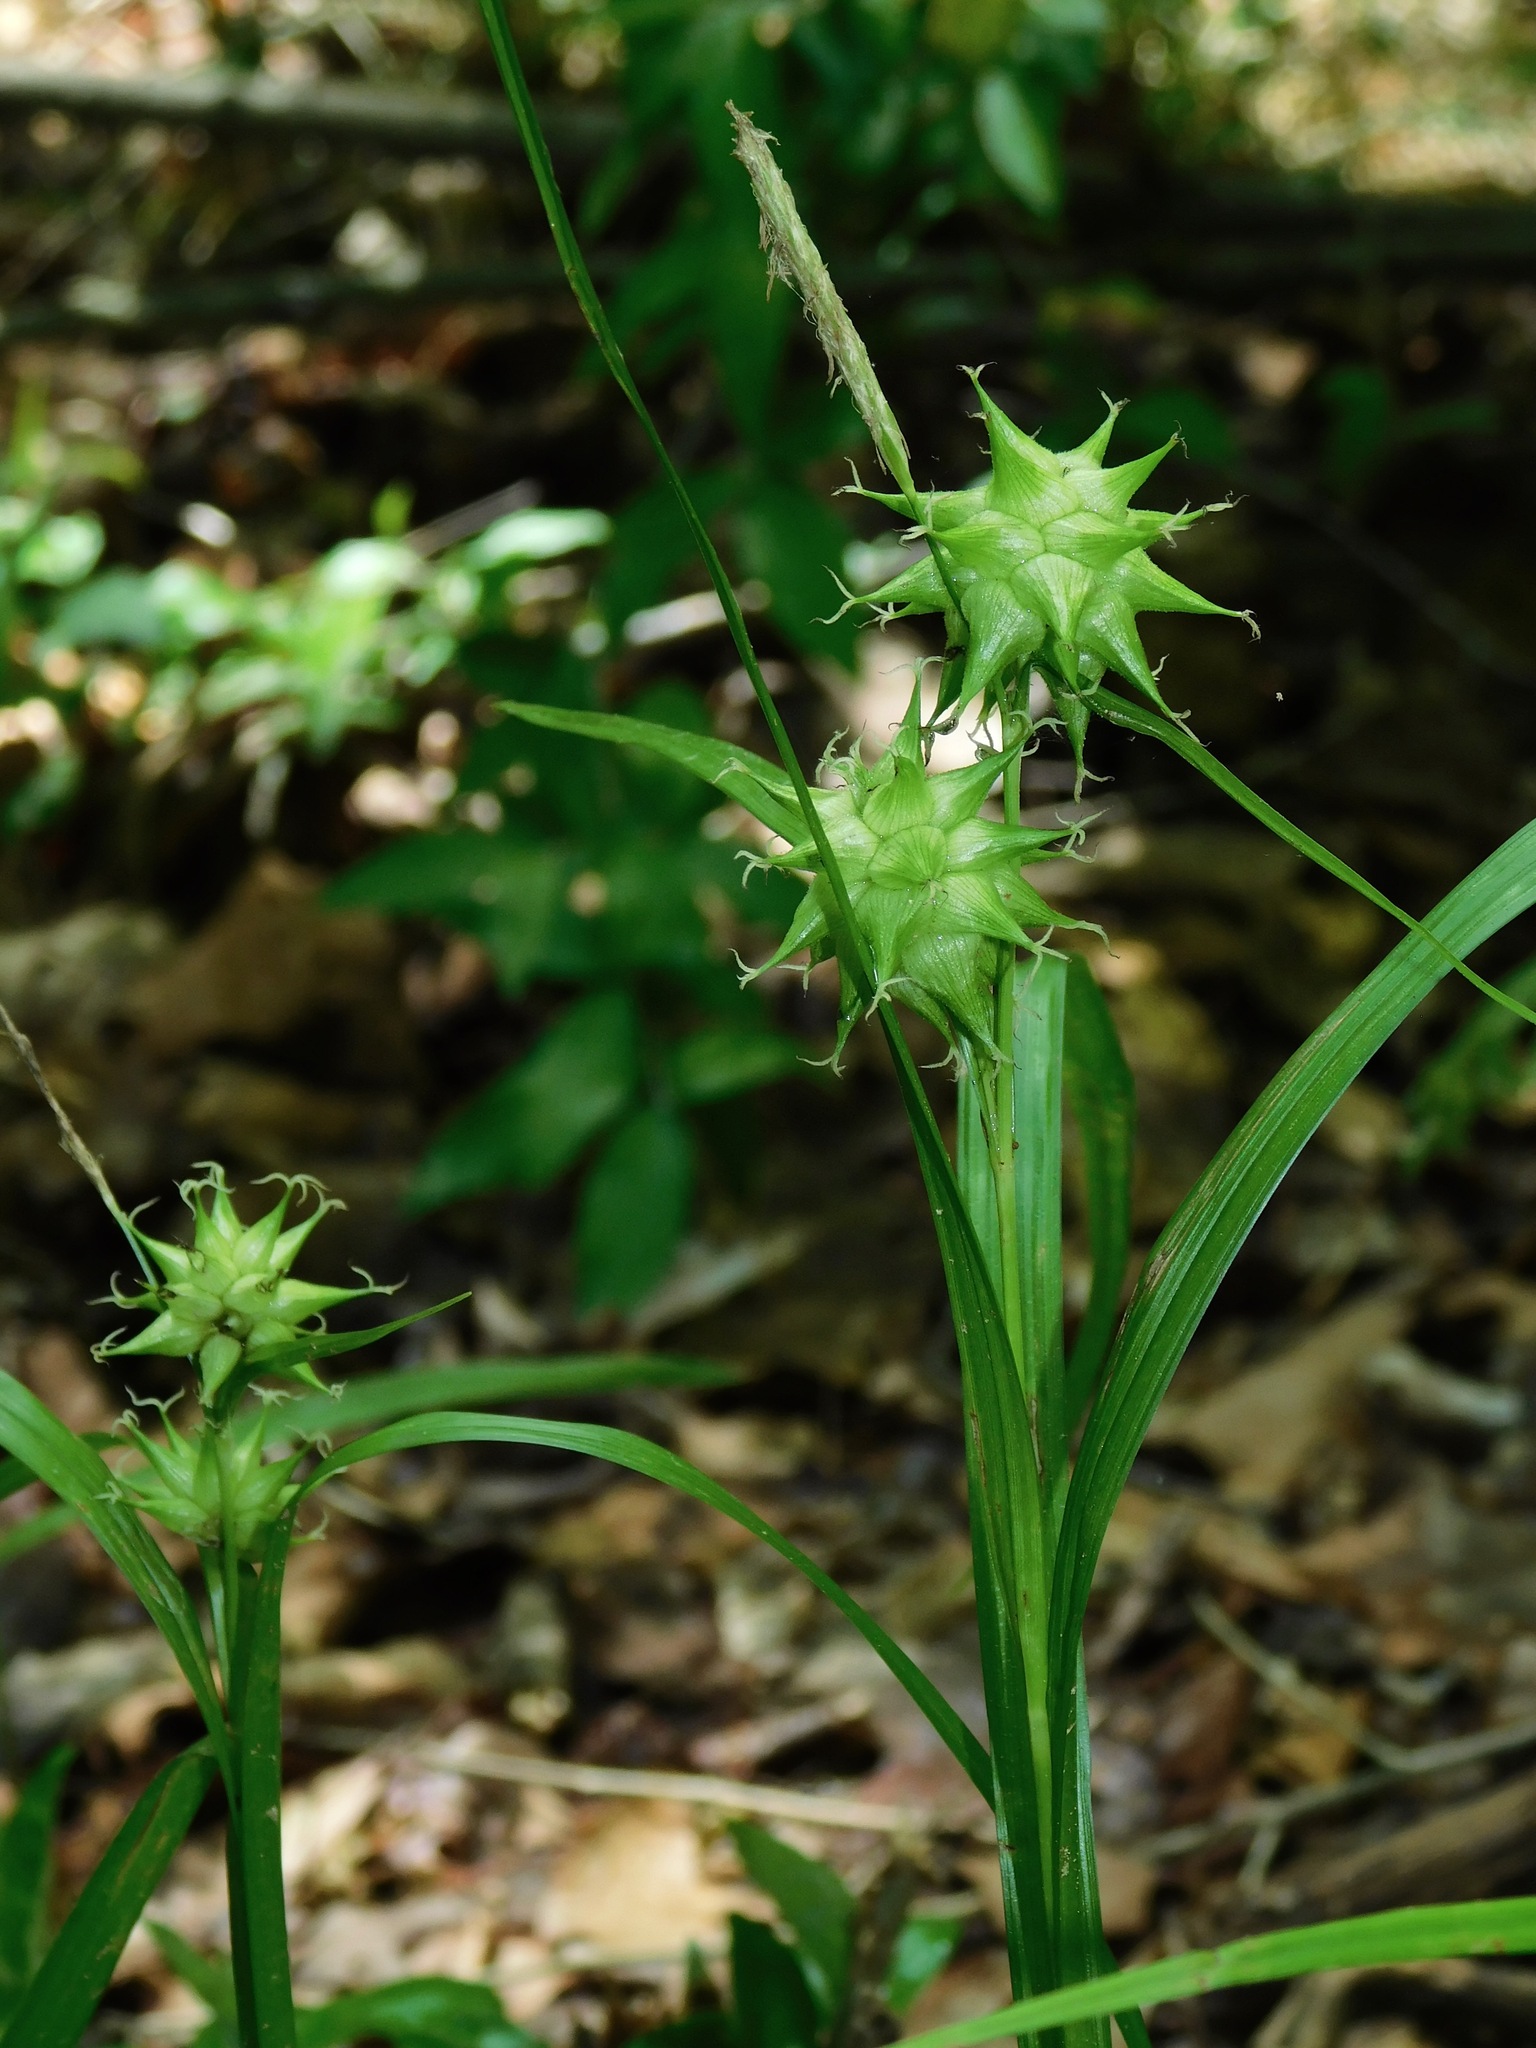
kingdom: Plantae
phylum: Tracheophyta
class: Liliopsida
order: Poales
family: Cyperaceae
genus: Carex
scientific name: Carex grayi
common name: Asa gray's sedge
